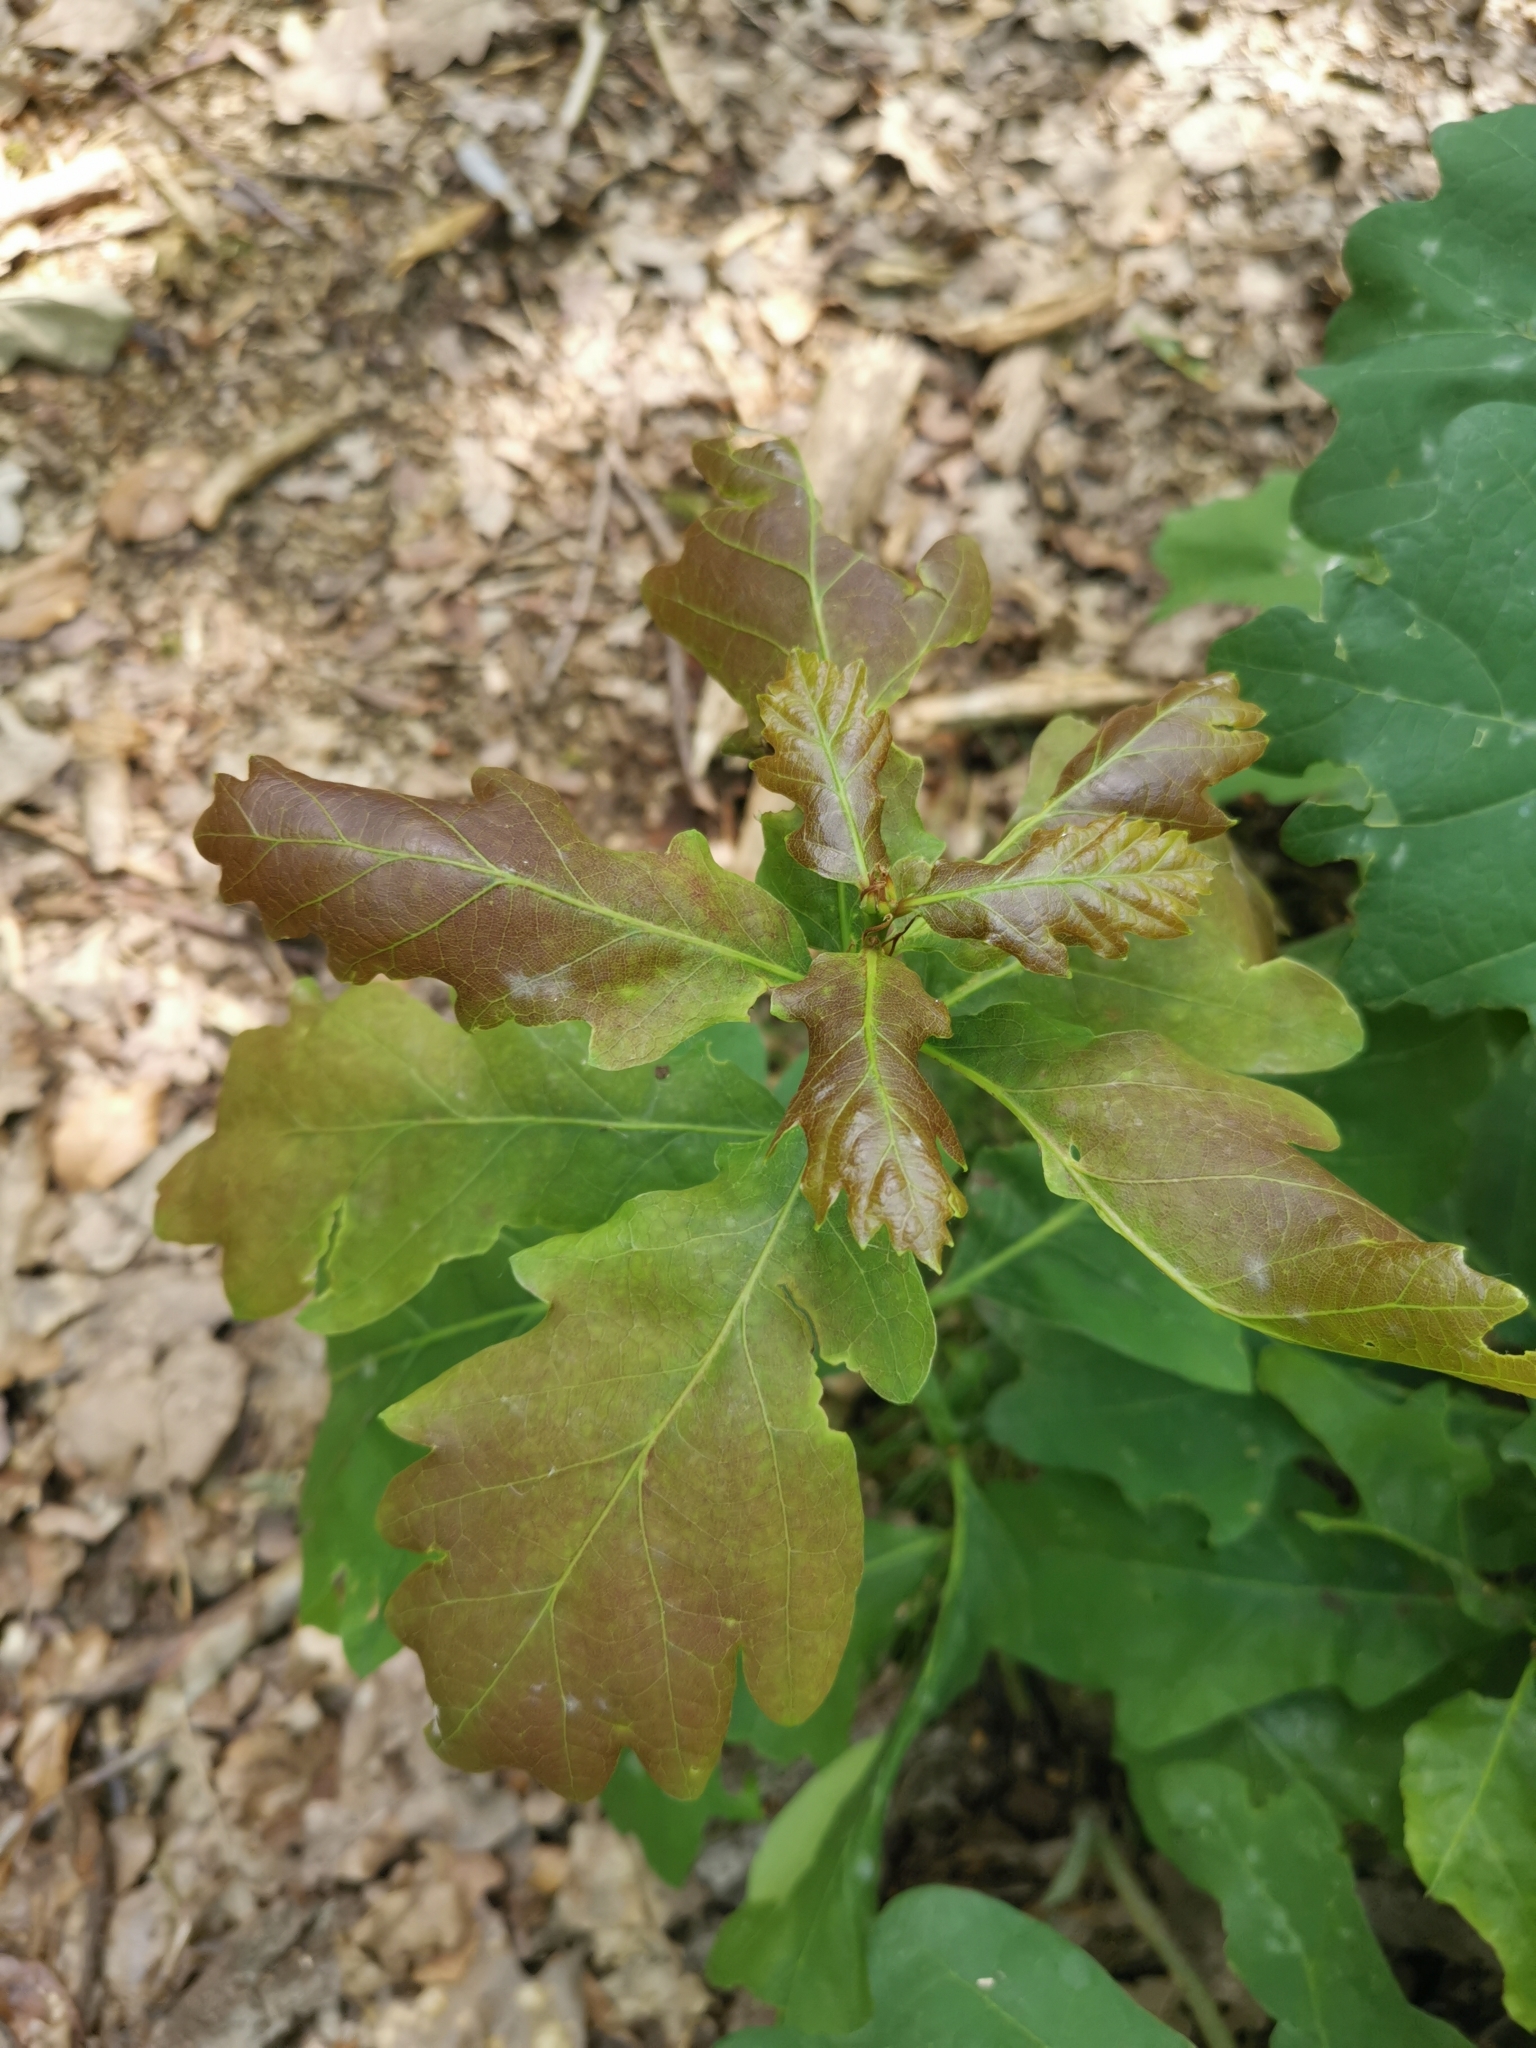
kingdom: Plantae
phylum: Tracheophyta
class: Magnoliopsida
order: Fagales
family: Fagaceae
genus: Quercus
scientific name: Quercus robur
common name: Pedunculate oak
